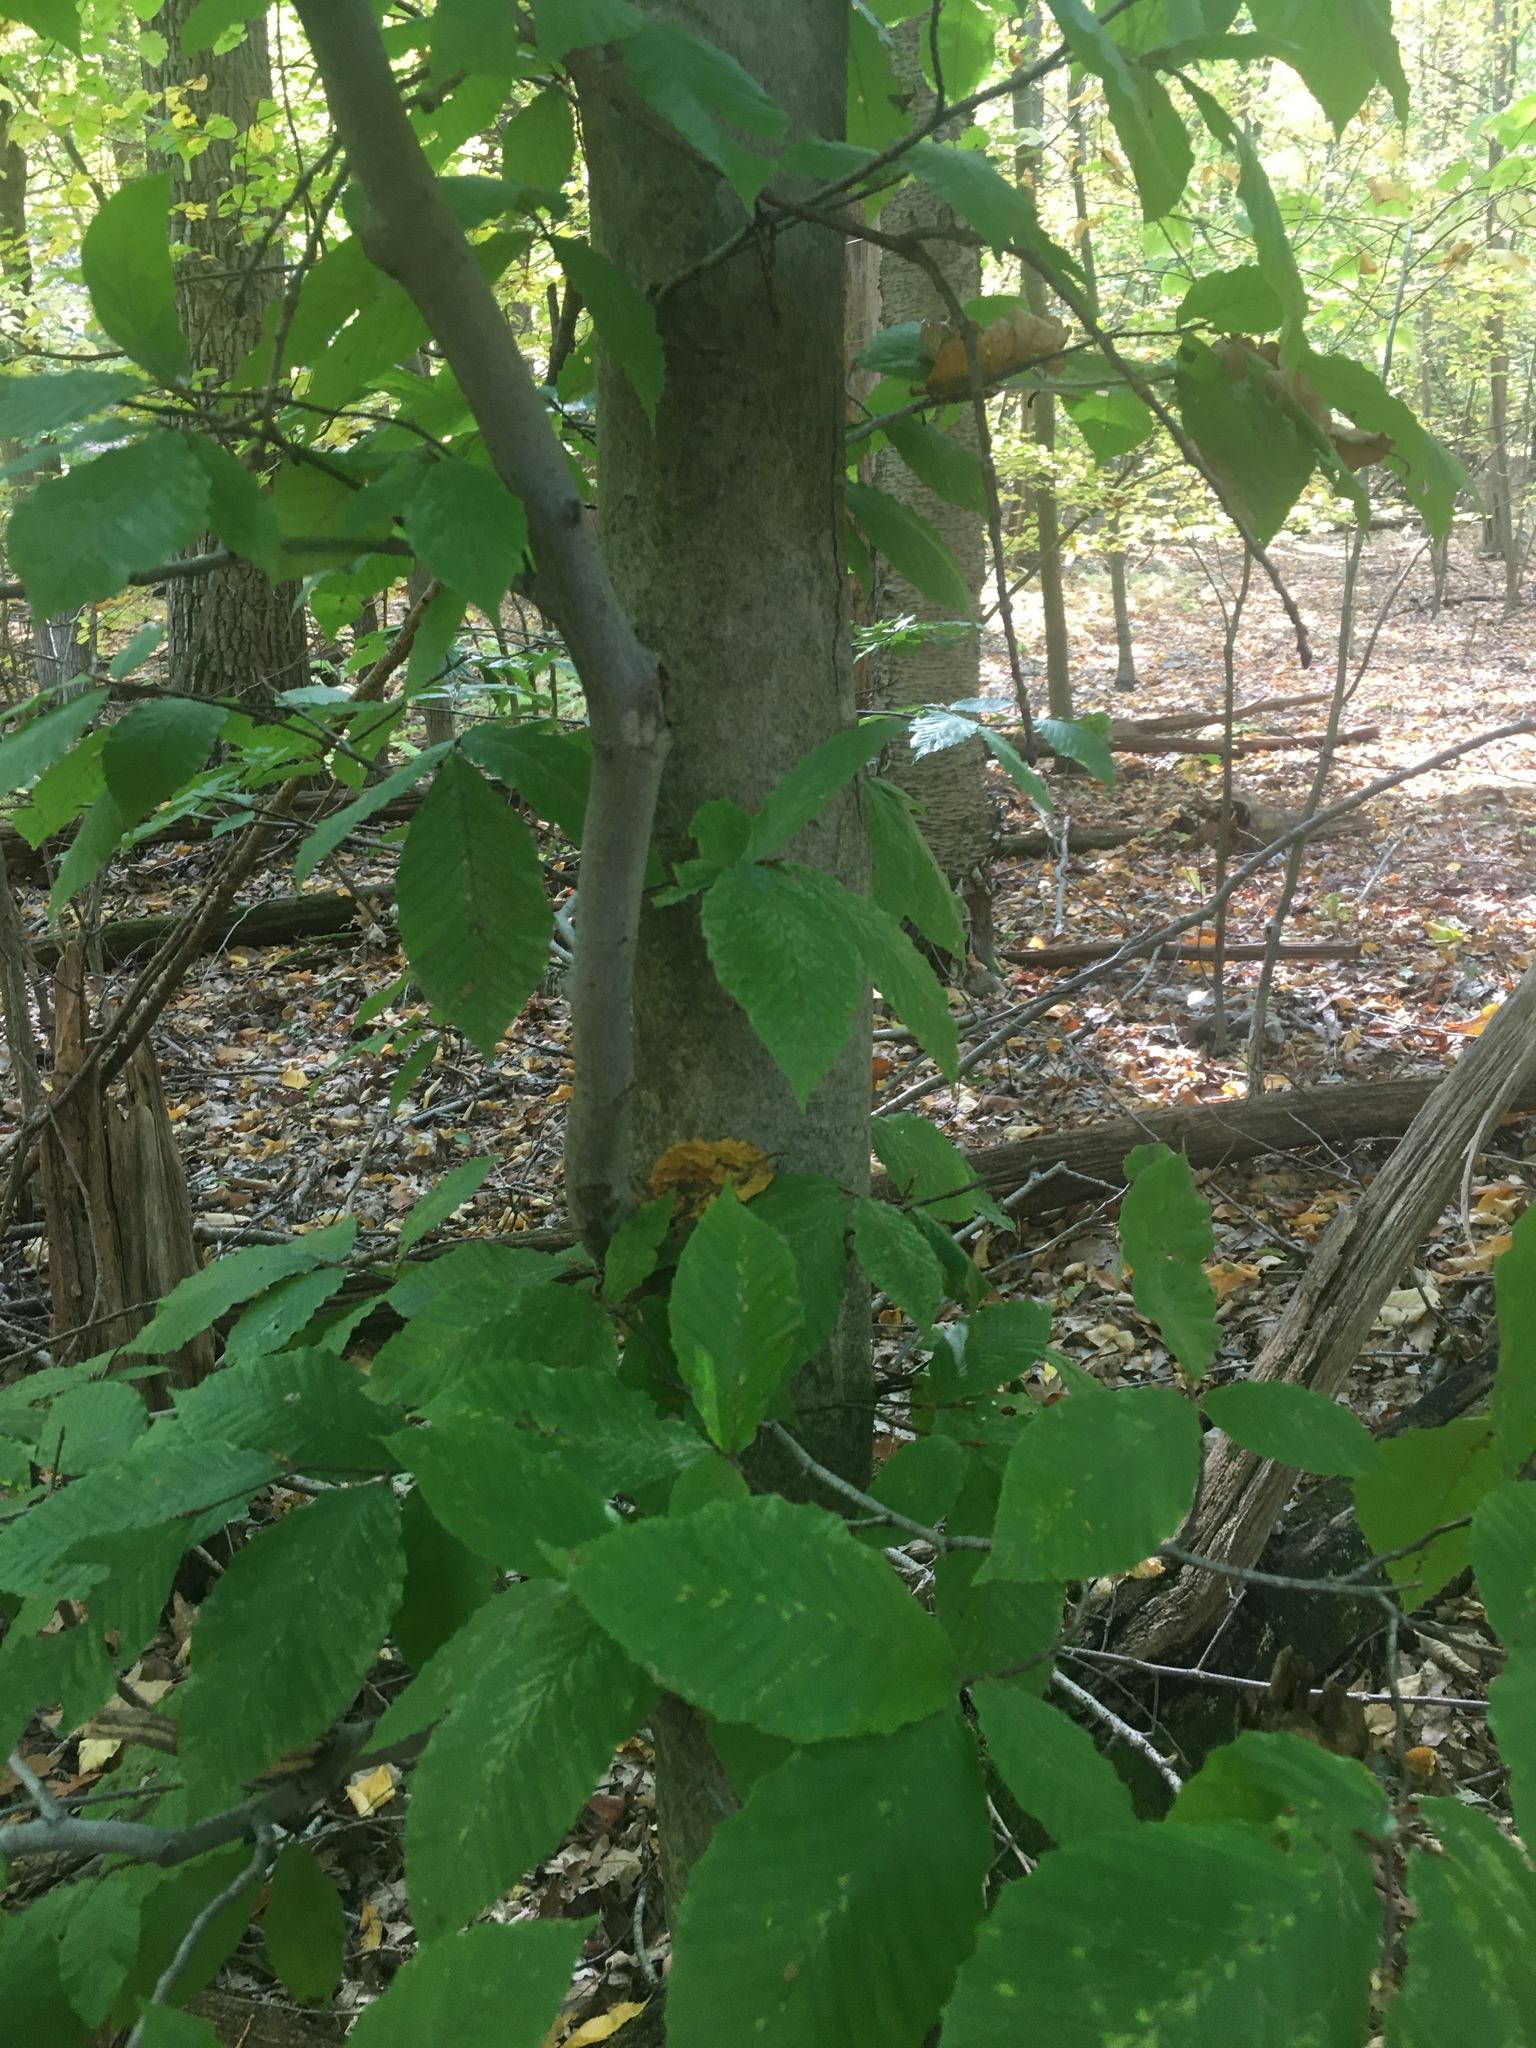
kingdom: Plantae
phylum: Tracheophyta
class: Magnoliopsida
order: Fagales
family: Fagaceae
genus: Fagus
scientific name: Fagus grandifolia
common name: American beech
